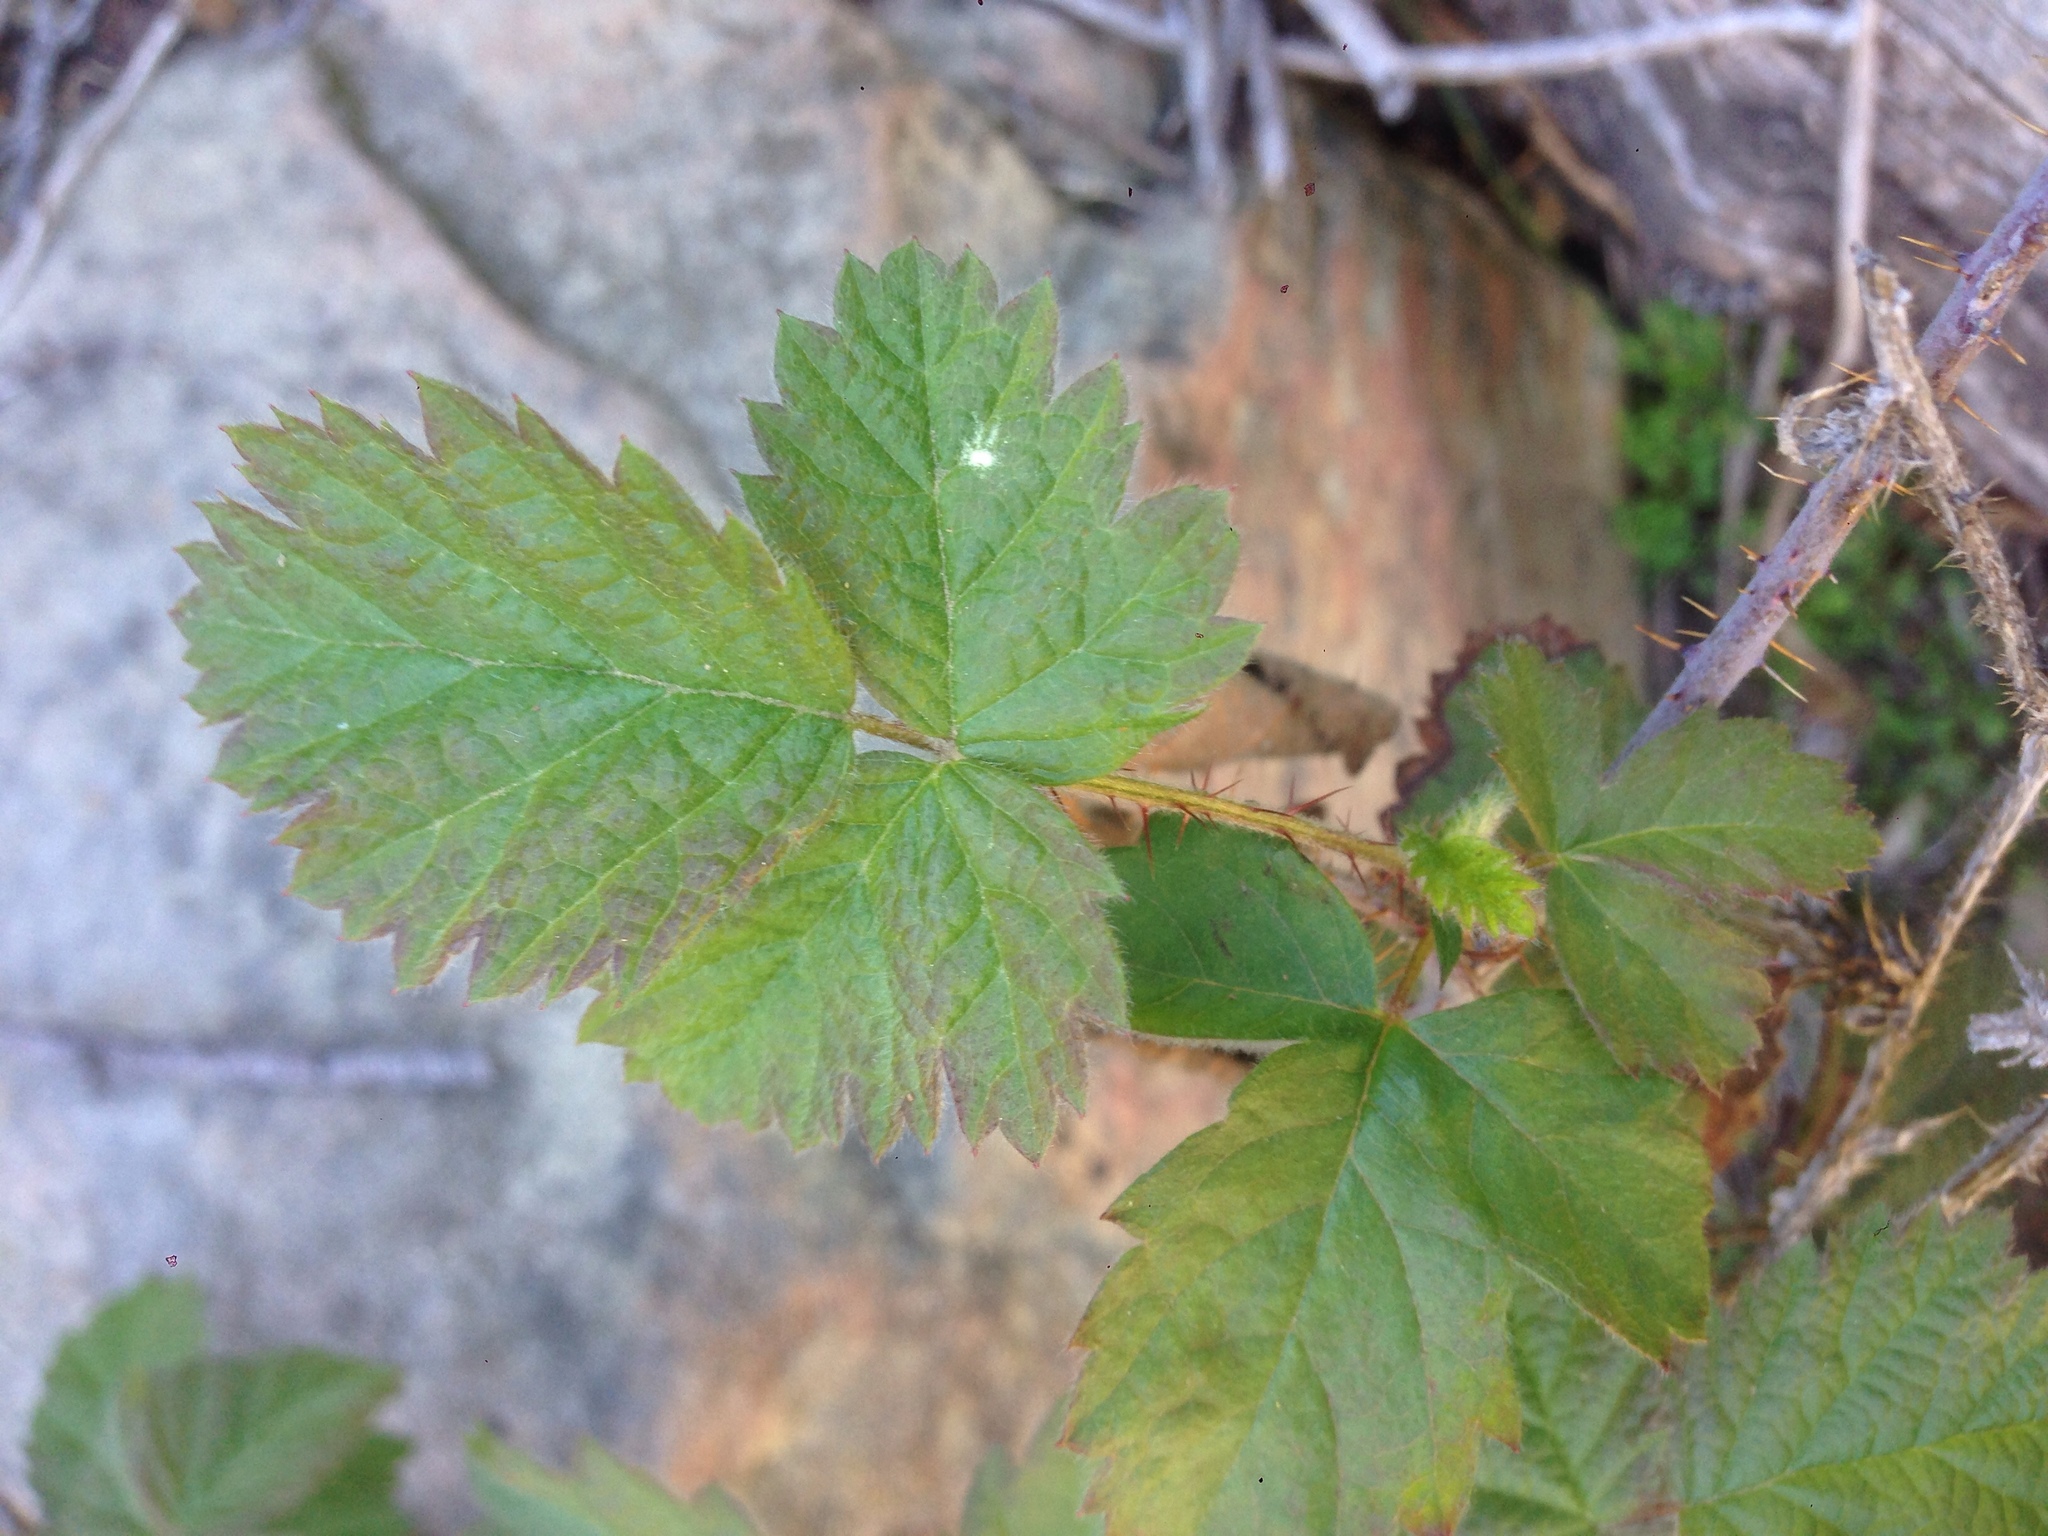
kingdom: Plantae
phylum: Tracheophyta
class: Magnoliopsida
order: Rosales
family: Rosaceae
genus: Rubus
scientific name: Rubus ursinus
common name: Pacific blackberry
